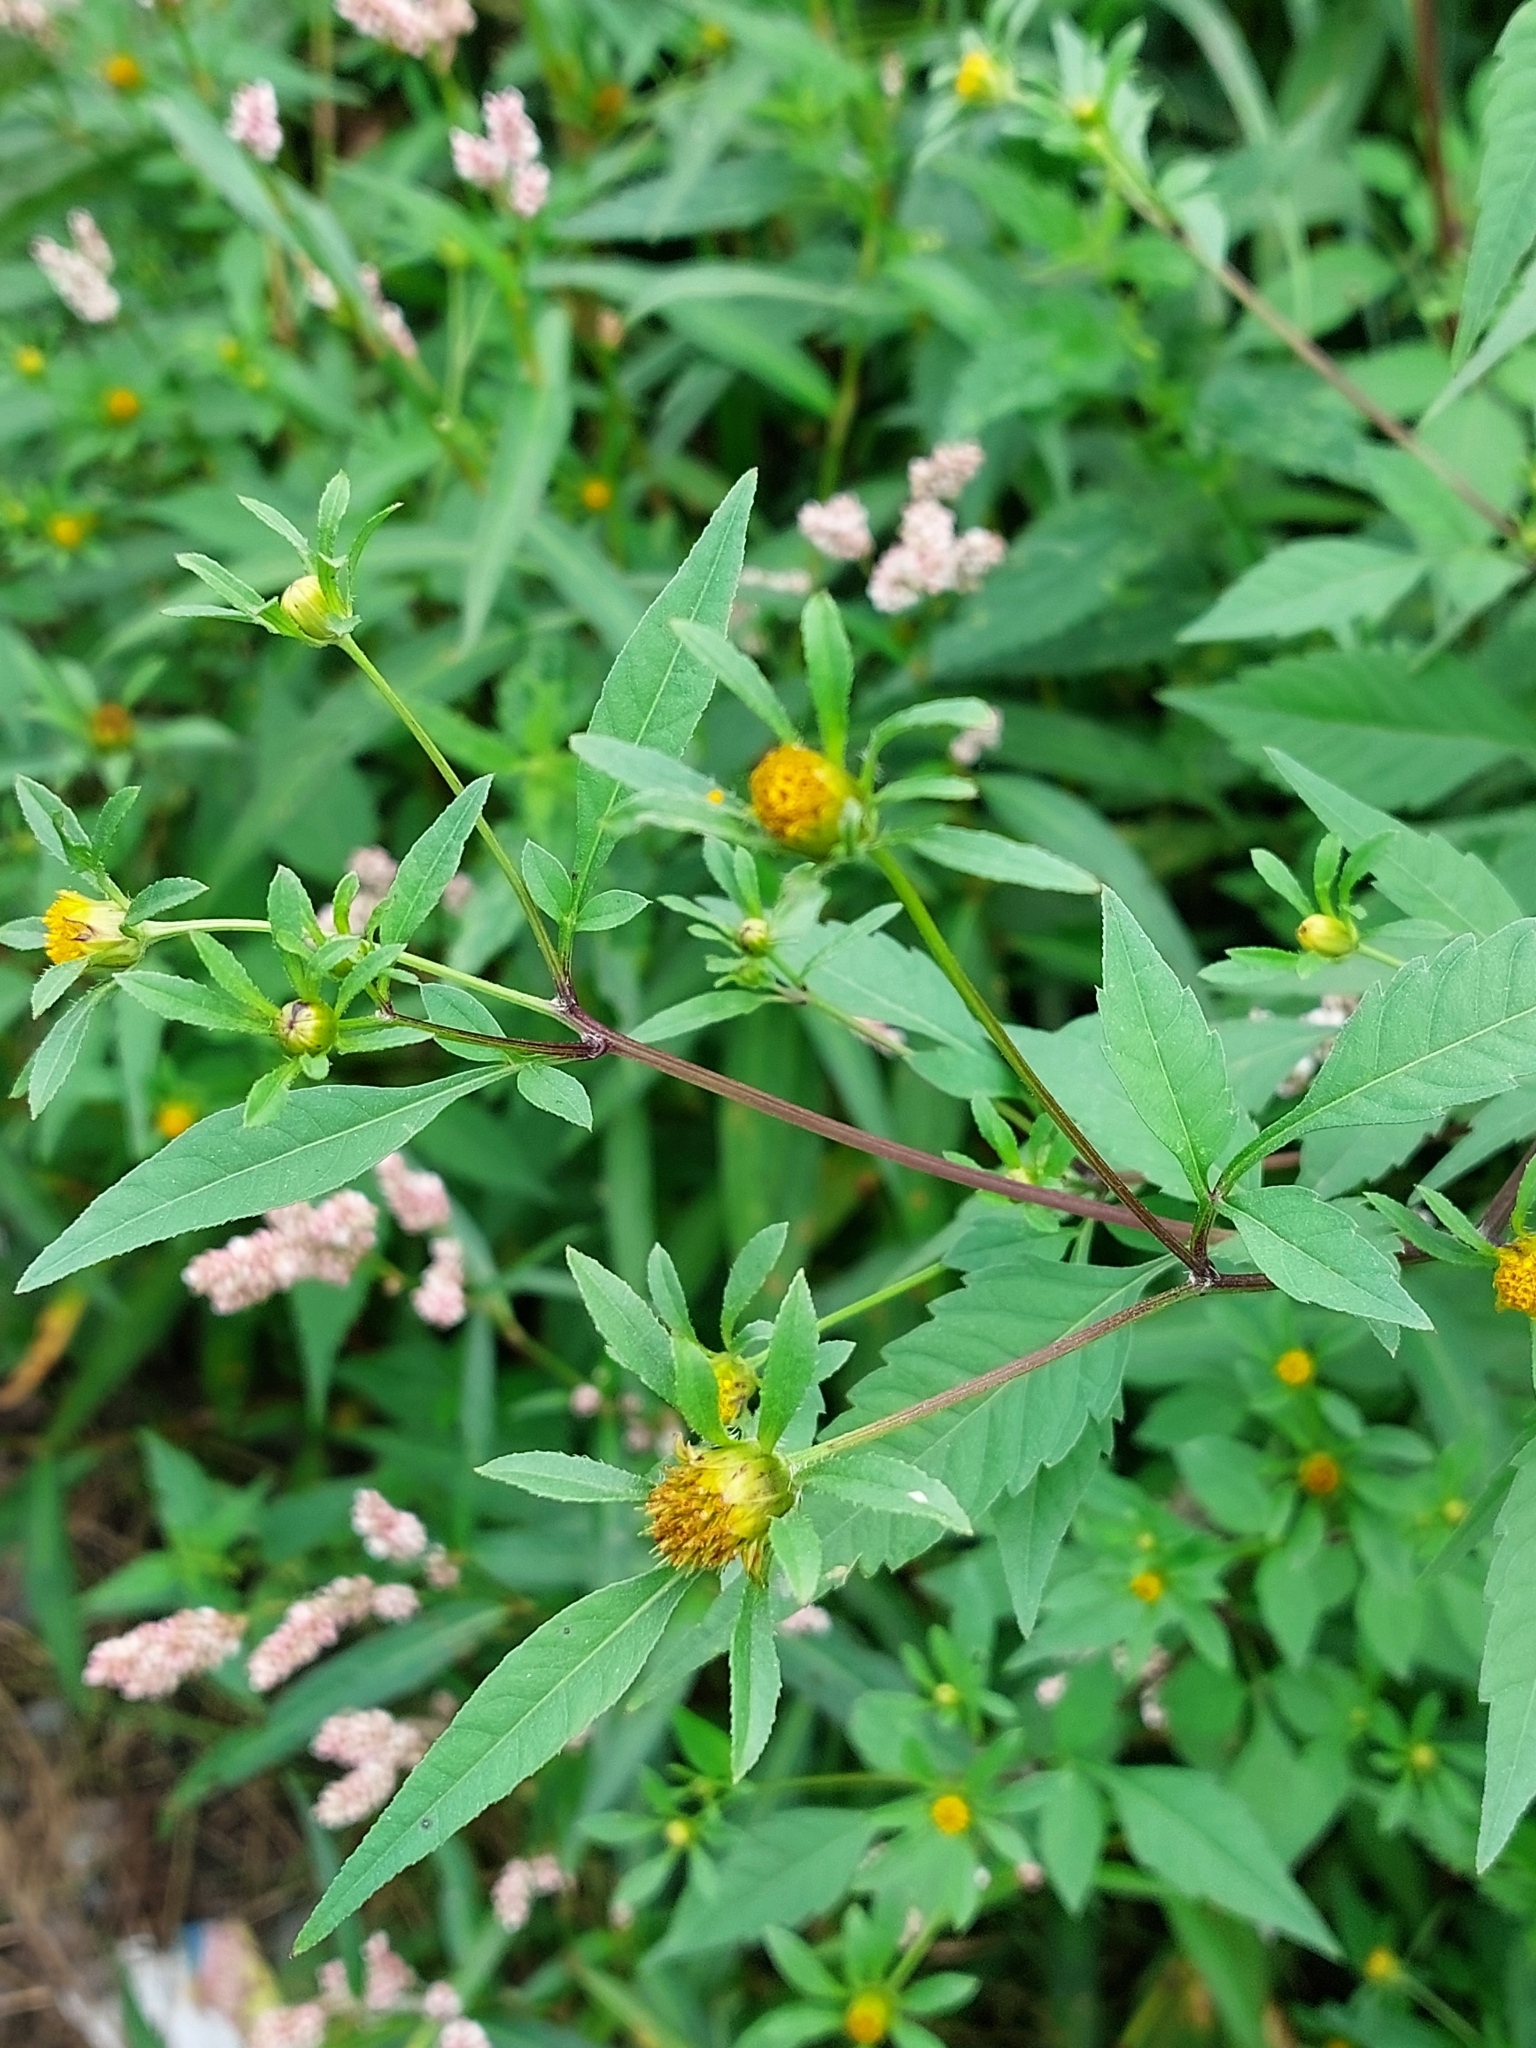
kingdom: Plantae
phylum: Tracheophyta
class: Magnoliopsida
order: Asterales
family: Asteraceae
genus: Bidens
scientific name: Bidens frondosa
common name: Beggarticks
